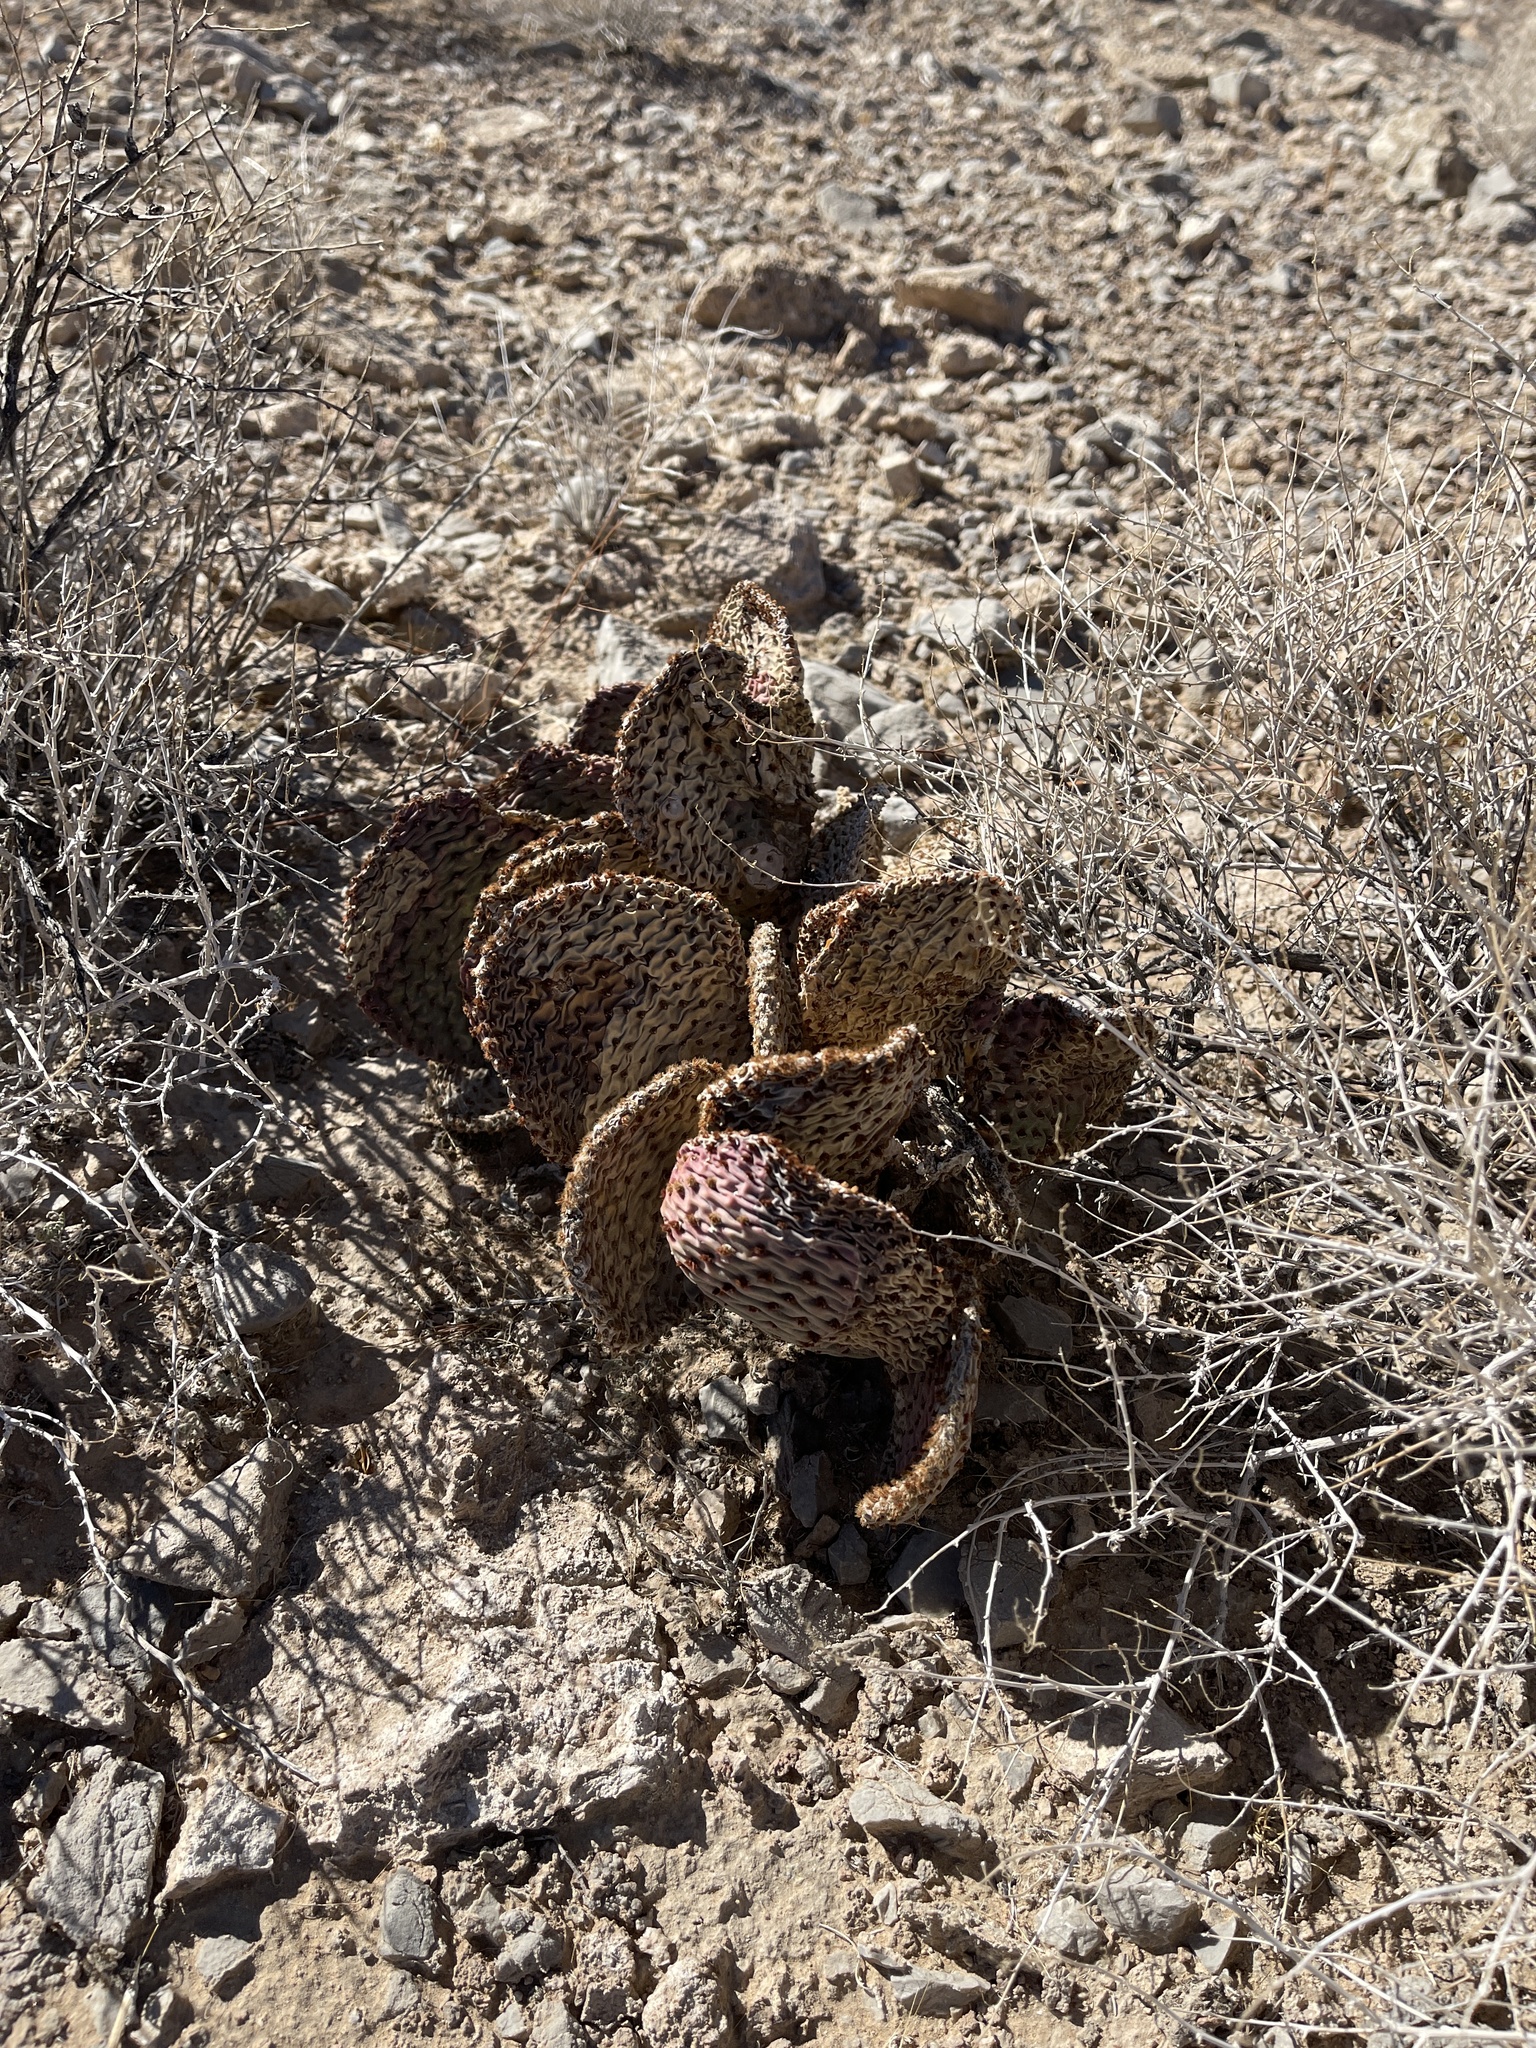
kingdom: Plantae
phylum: Tracheophyta
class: Magnoliopsida
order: Caryophyllales
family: Cactaceae
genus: Opuntia
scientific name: Opuntia basilaris
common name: Beavertail prickly-pear
